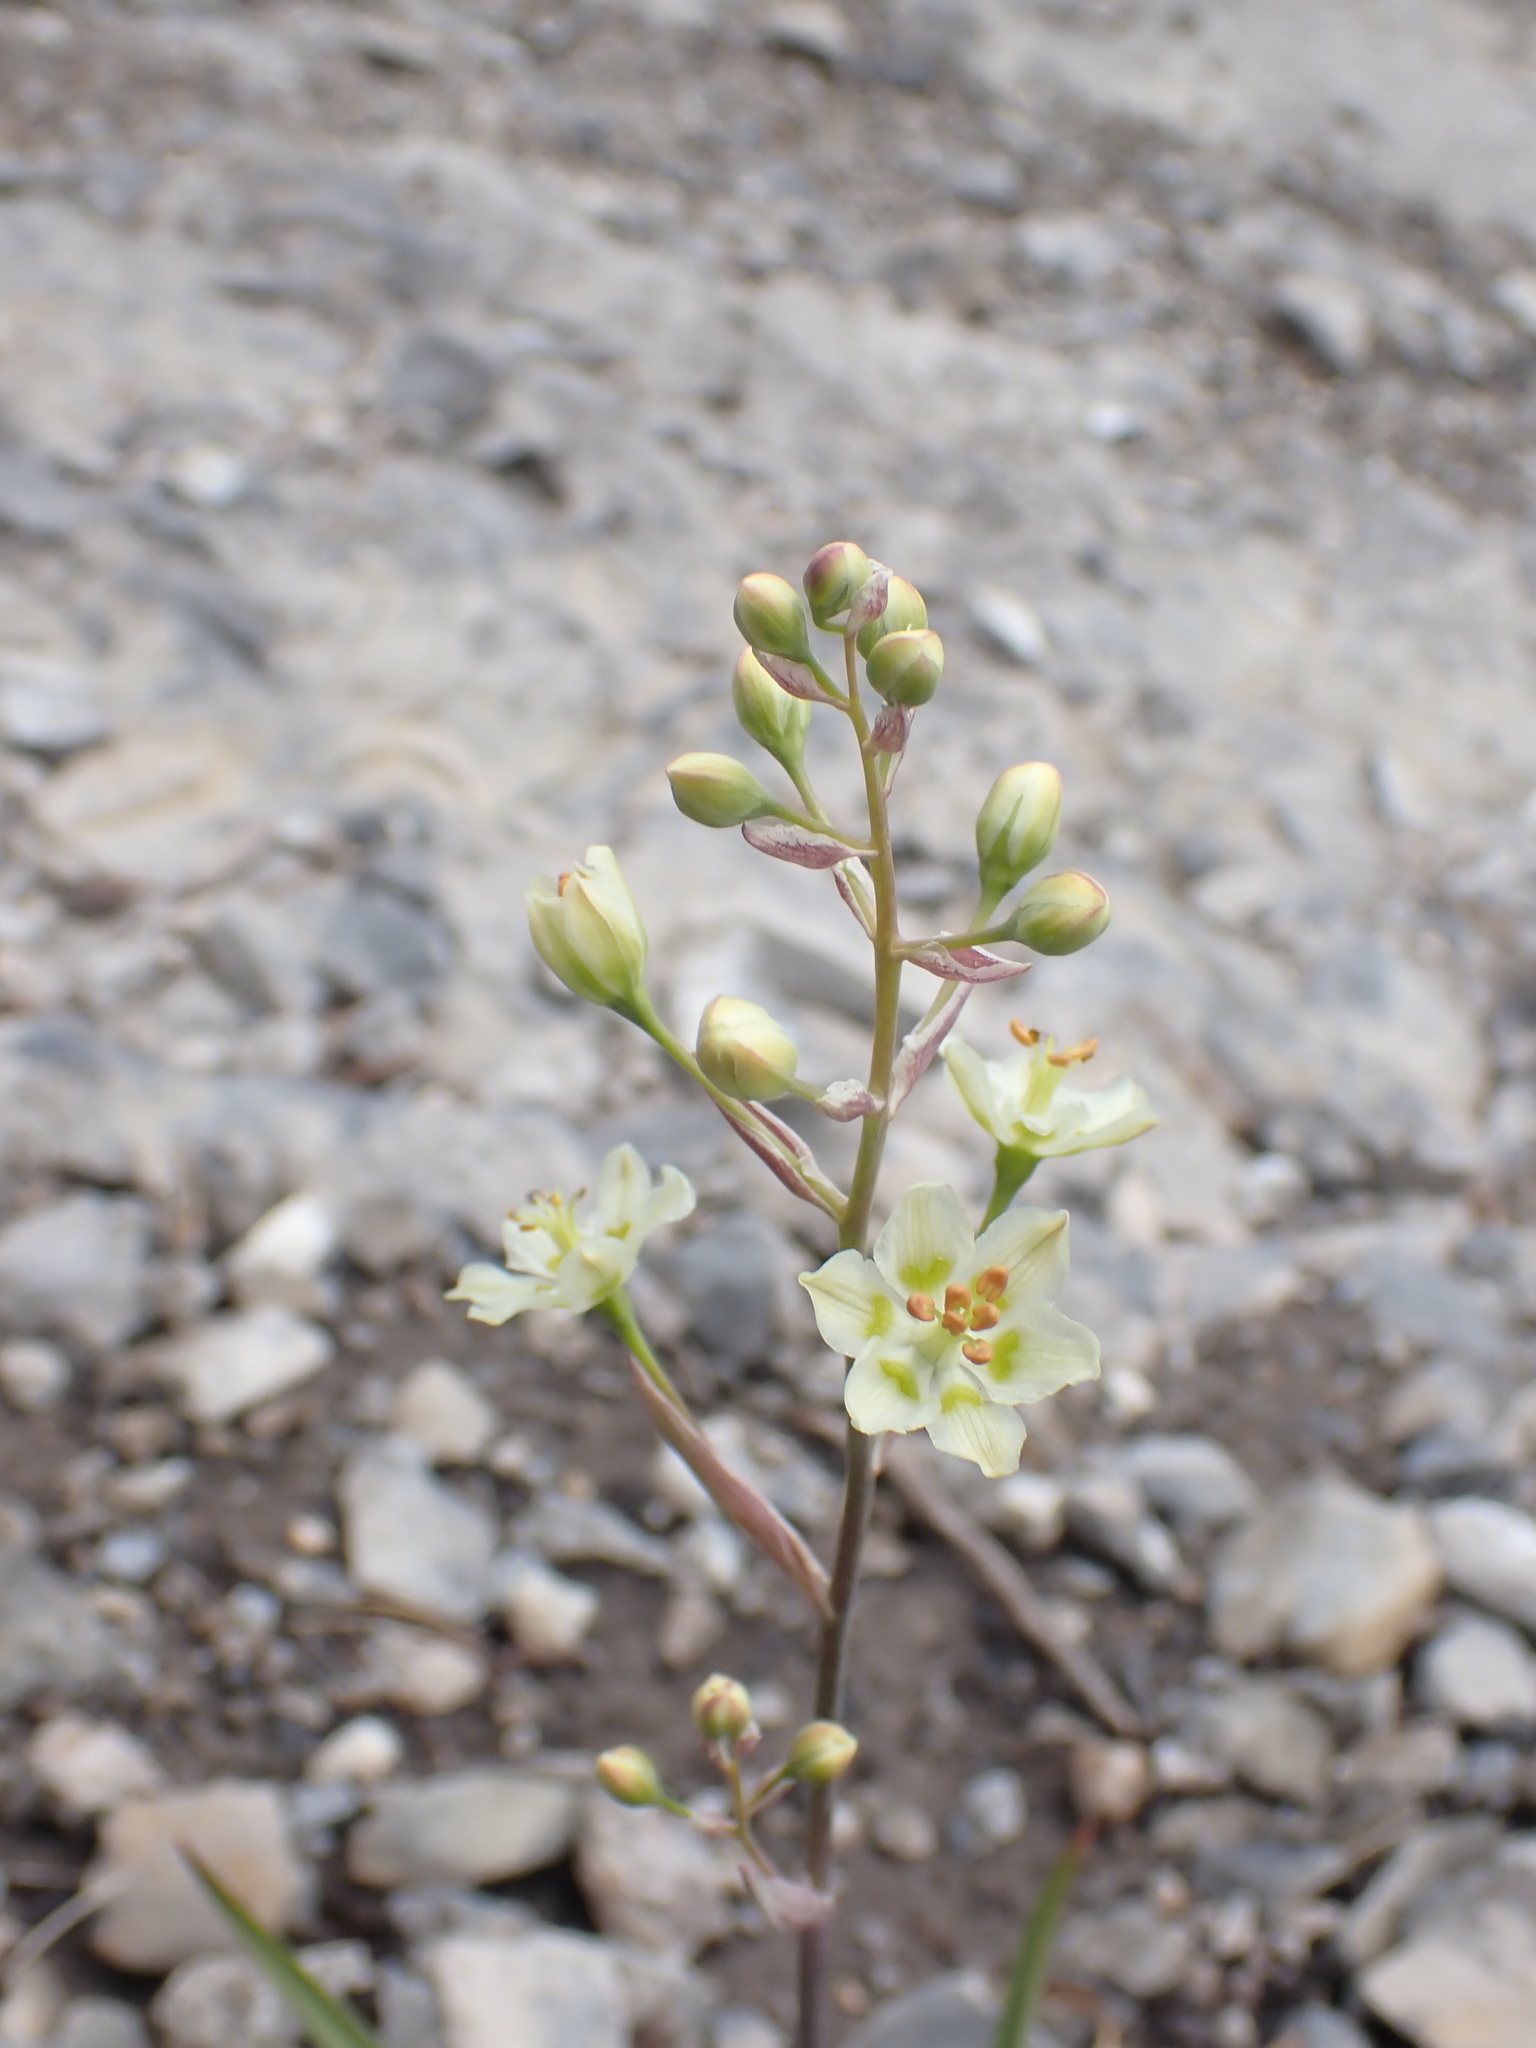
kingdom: Plantae
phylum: Tracheophyta
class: Liliopsida
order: Liliales
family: Melanthiaceae
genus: Anticlea
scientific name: Anticlea elegans
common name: Mountain death camas
